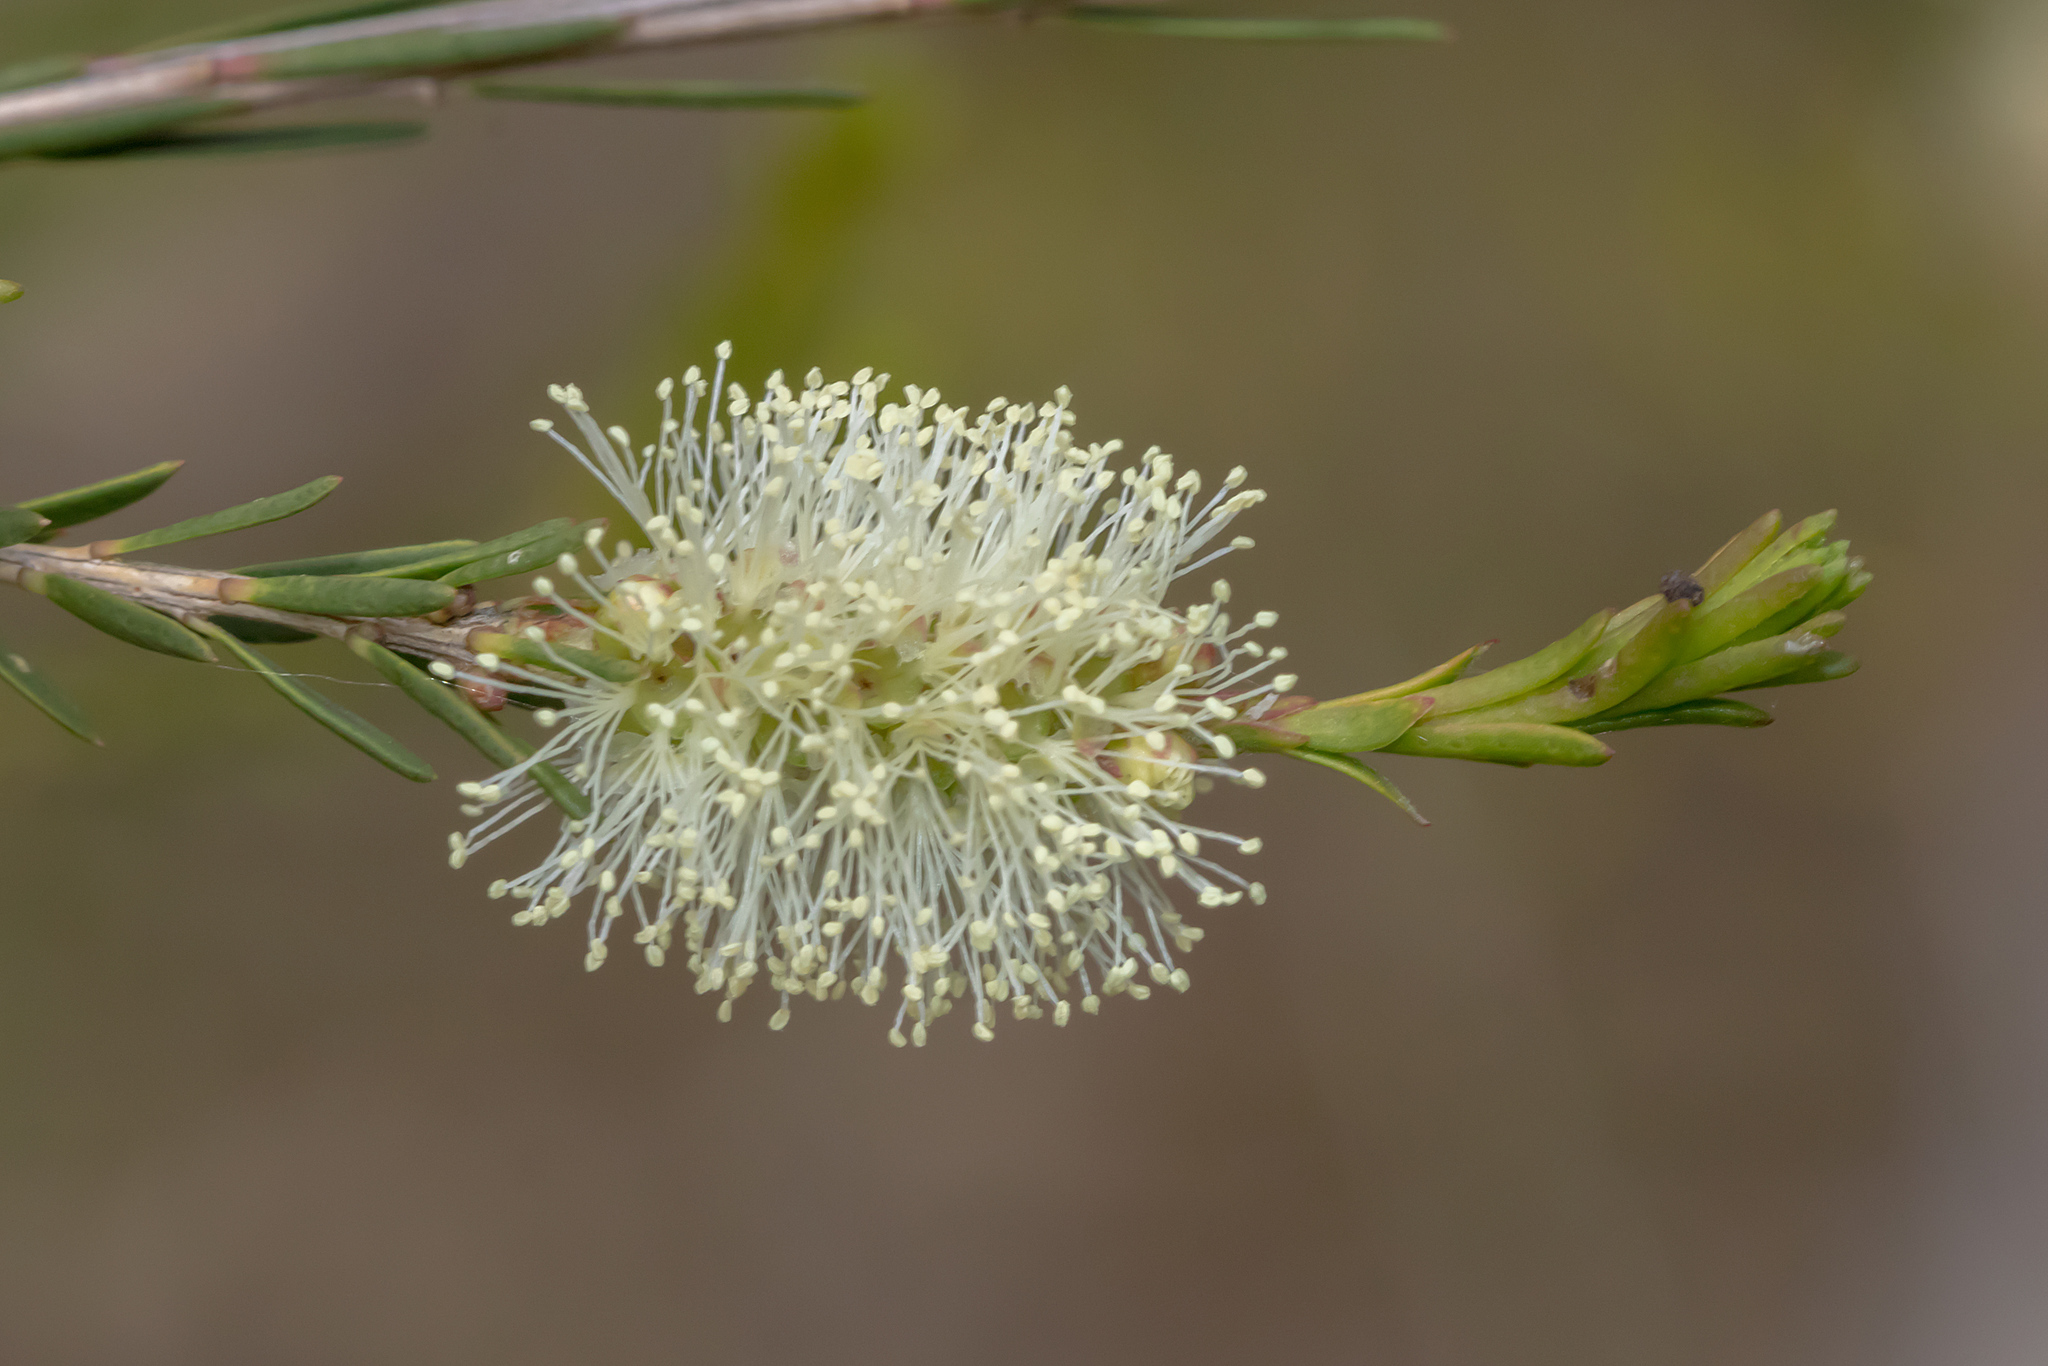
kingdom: Plantae
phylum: Tracheophyta
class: Magnoliopsida
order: Myrtales
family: Myrtaceae
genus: Melaleuca
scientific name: Melaleuca ericifolia
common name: Paperbark teatree
